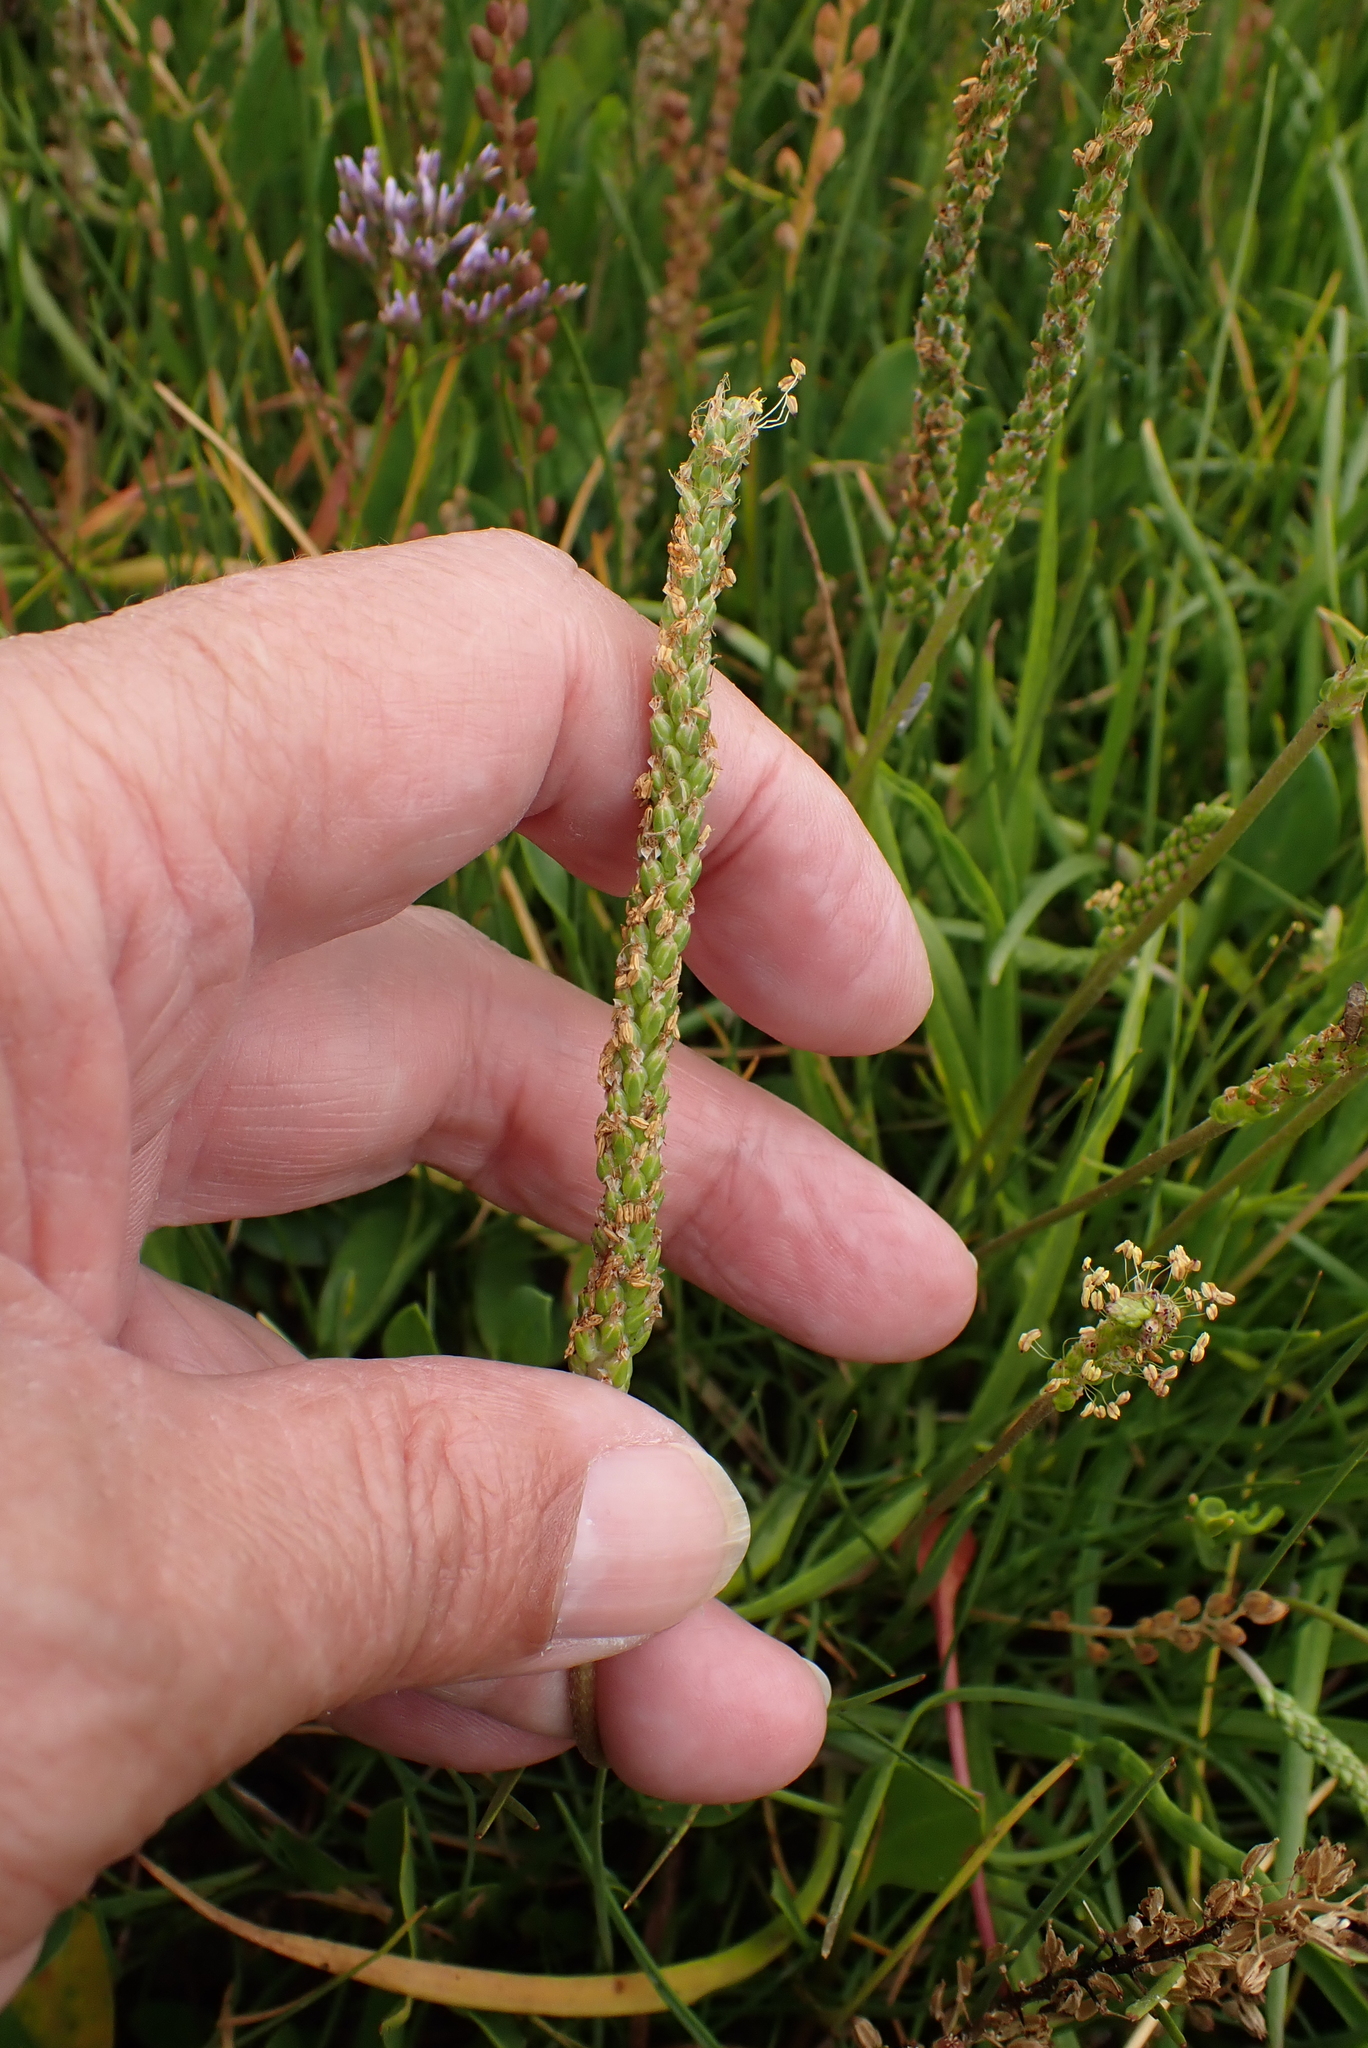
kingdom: Plantae
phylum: Tracheophyta
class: Magnoliopsida
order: Lamiales
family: Plantaginaceae
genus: Plantago
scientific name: Plantago maritima
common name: Sea plantain
